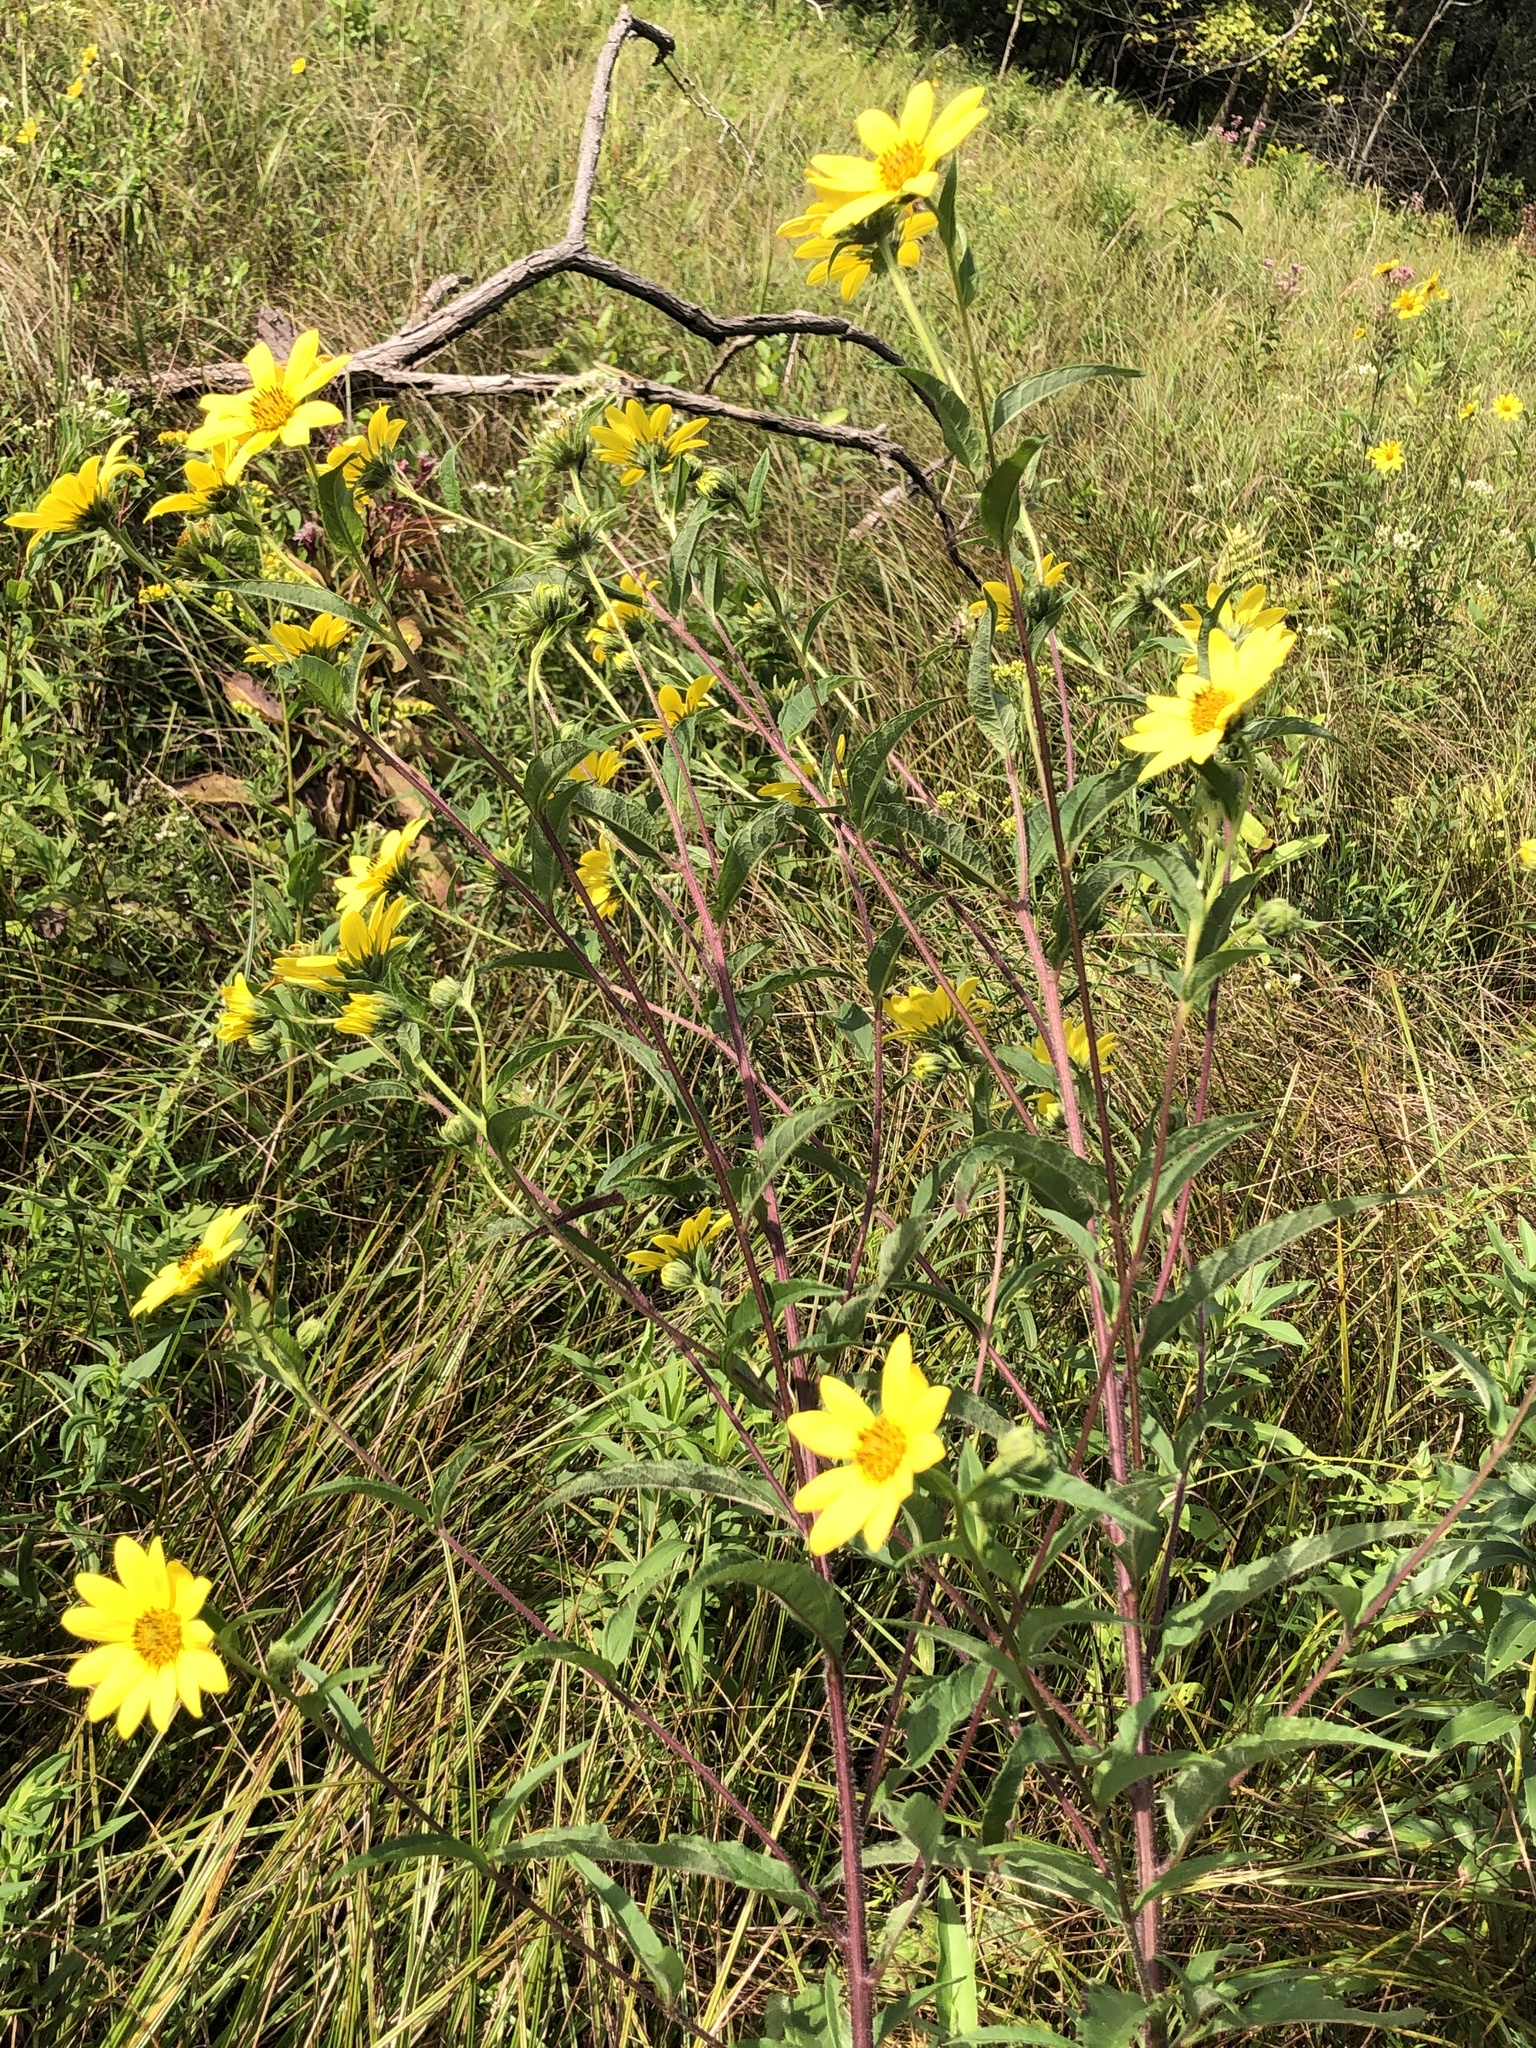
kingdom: Plantae
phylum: Tracheophyta
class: Magnoliopsida
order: Asterales
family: Asteraceae
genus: Helianthus
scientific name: Helianthus giganteus
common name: Giant sunflower
